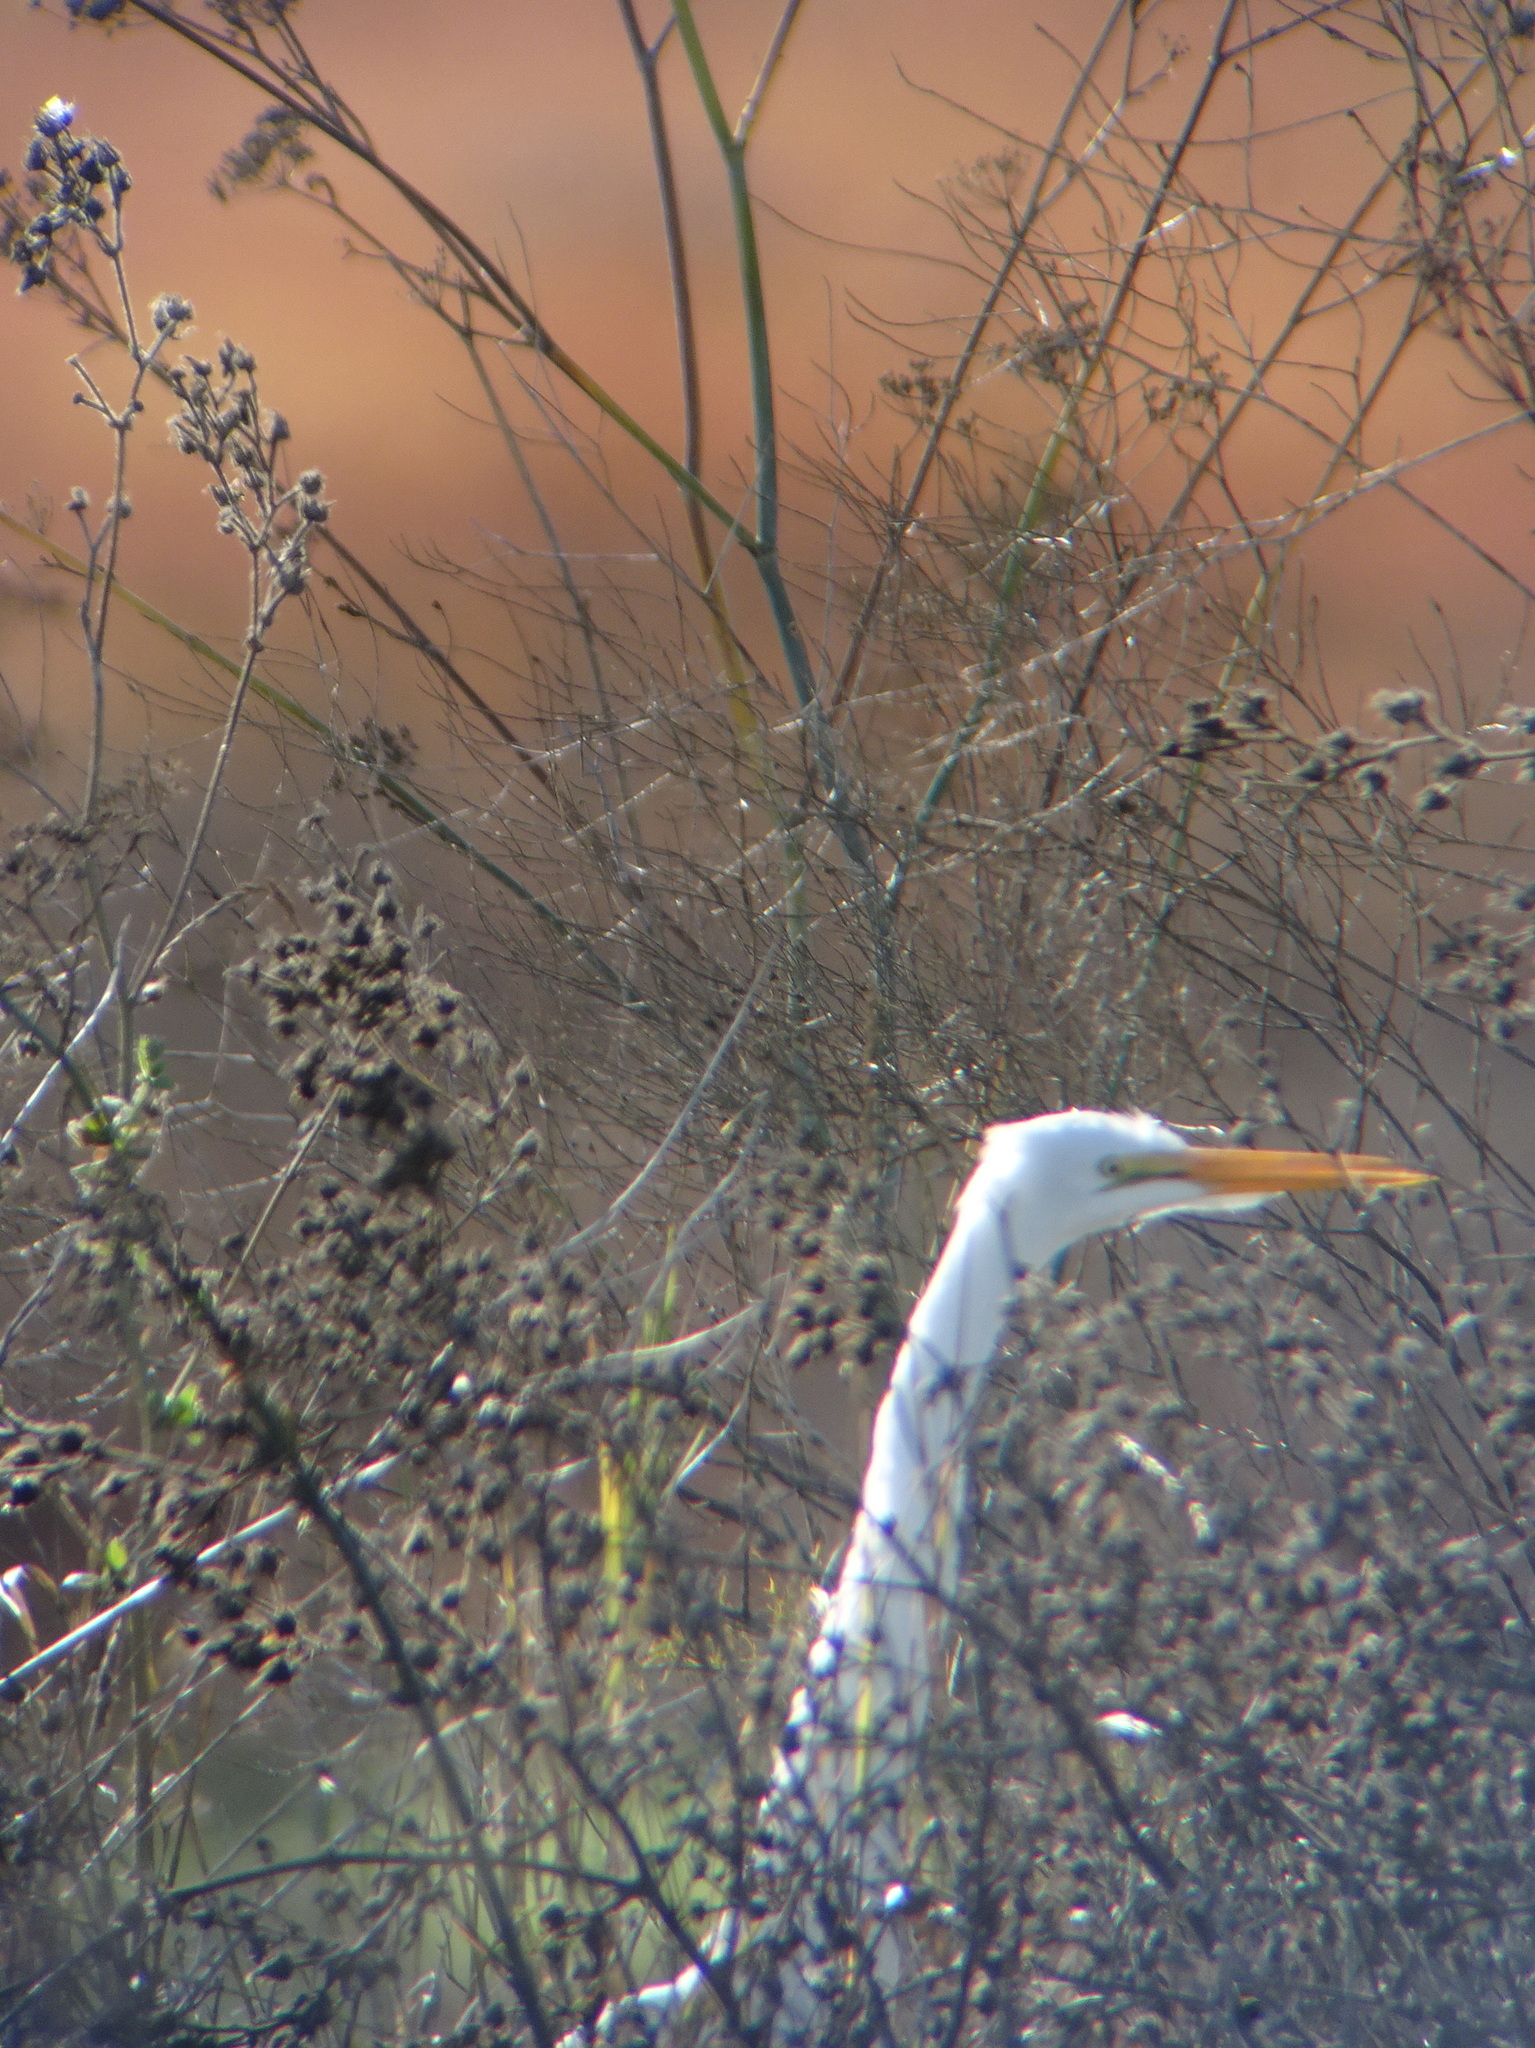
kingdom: Animalia
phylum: Chordata
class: Aves
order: Pelecaniformes
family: Ardeidae
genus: Ardea
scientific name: Ardea alba
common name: Great egret
